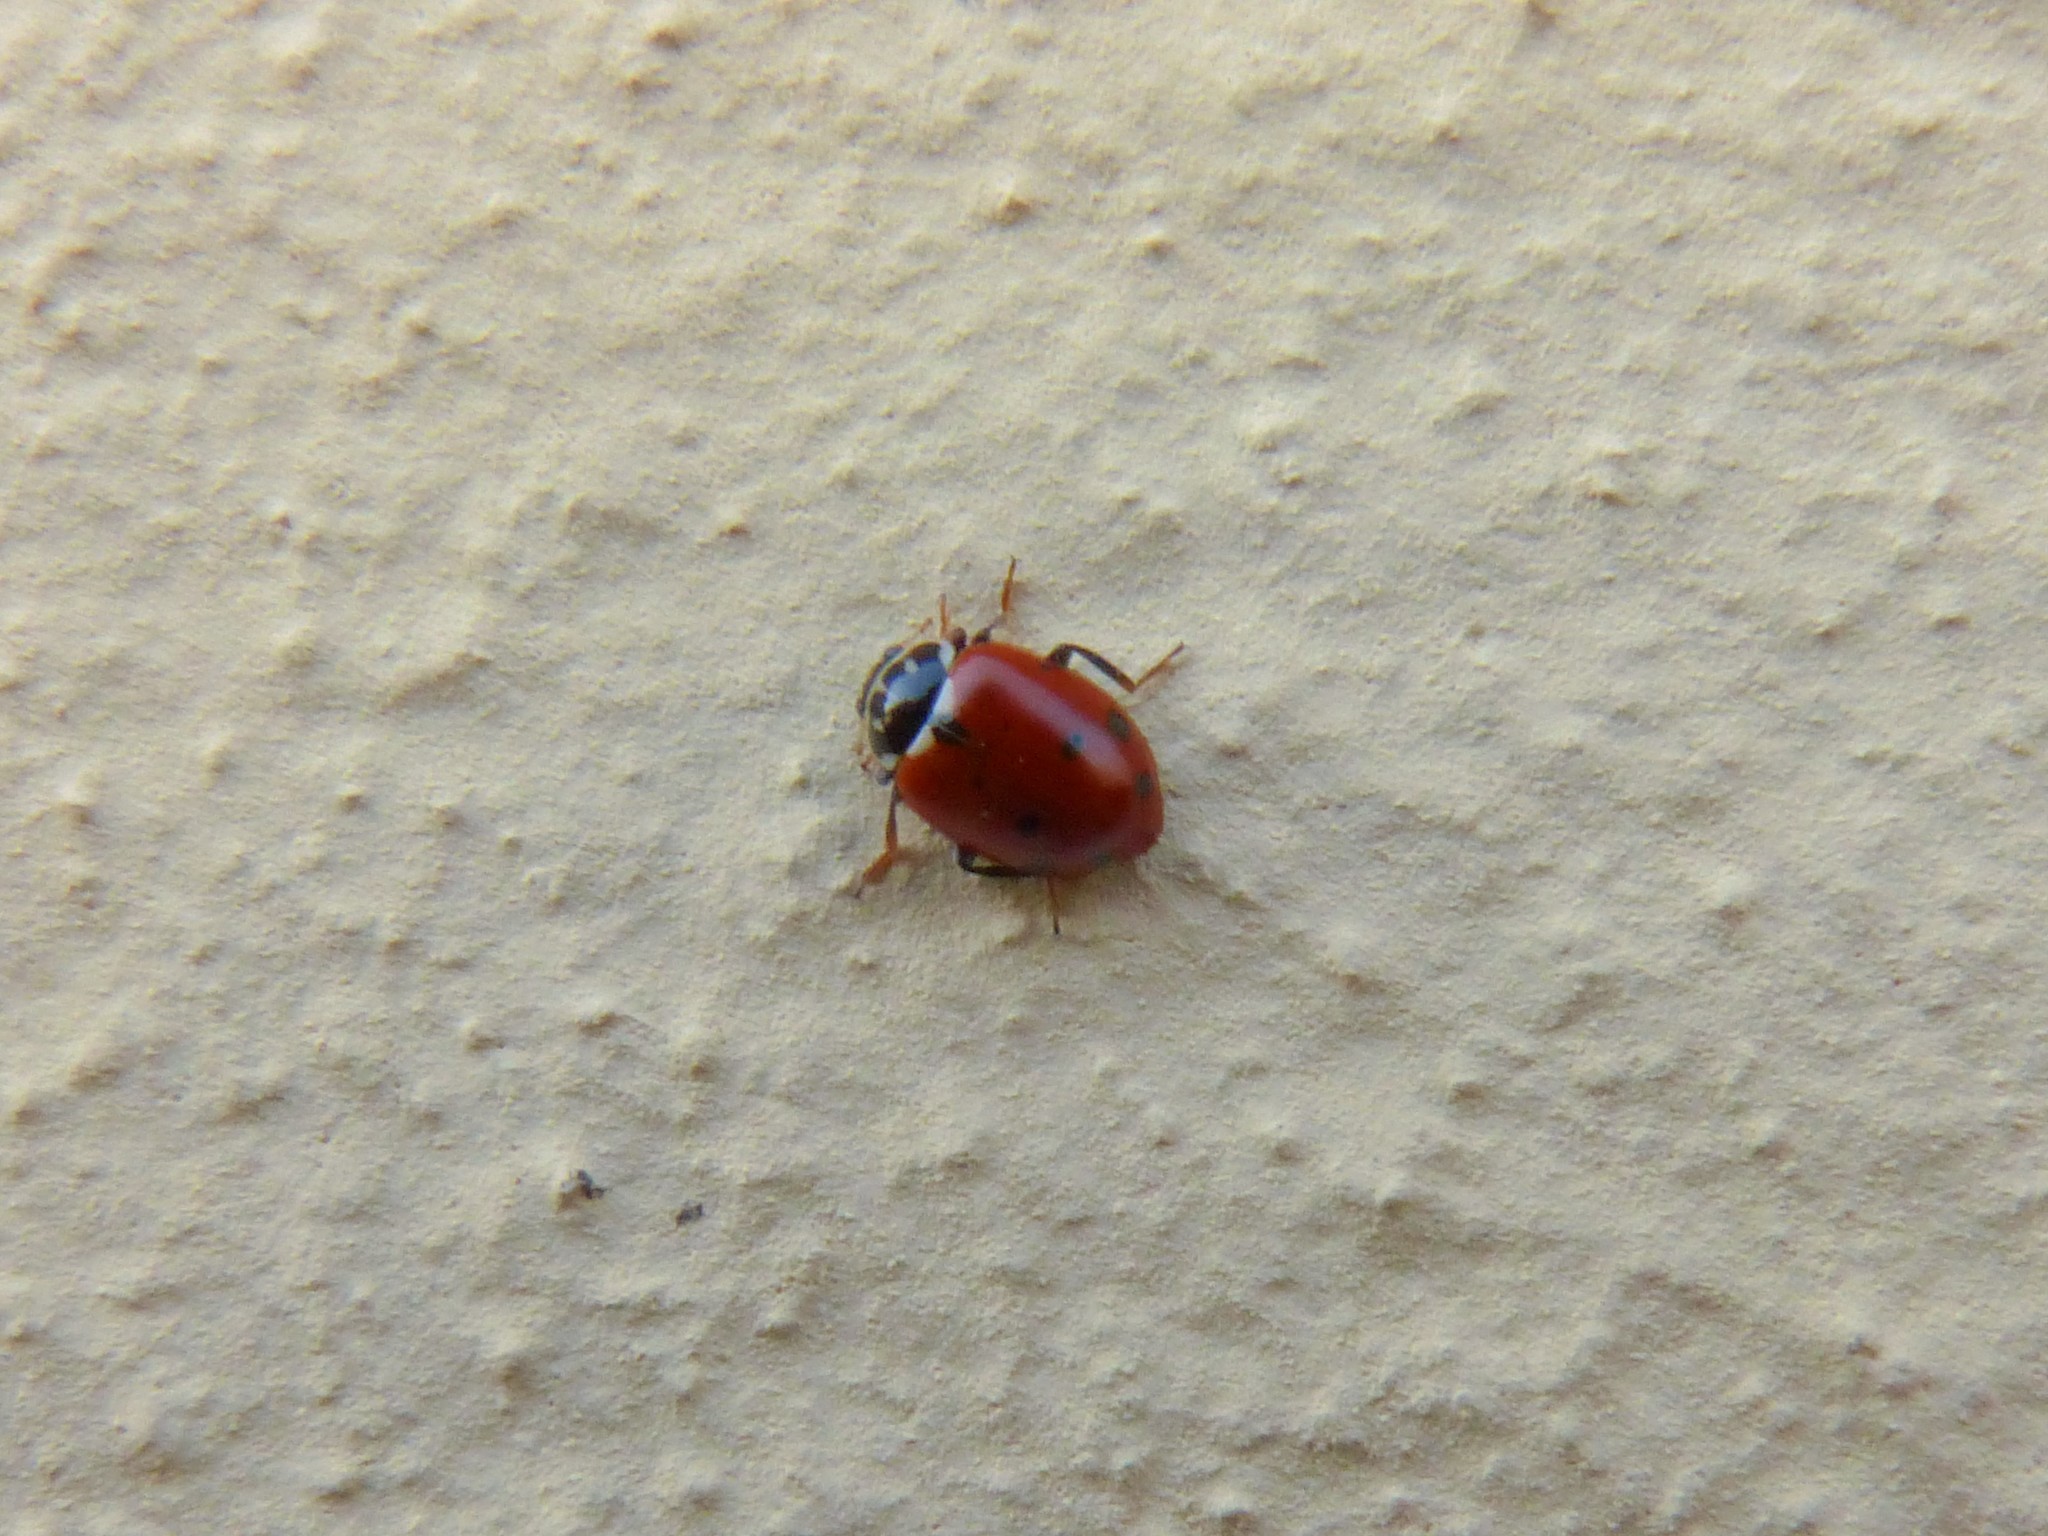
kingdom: Animalia
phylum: Arthropoda
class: Insecta
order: Coleoptera
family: Coccinellidae
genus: Hippodamia
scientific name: Hippodamia variegata
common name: Ladybird beetle
